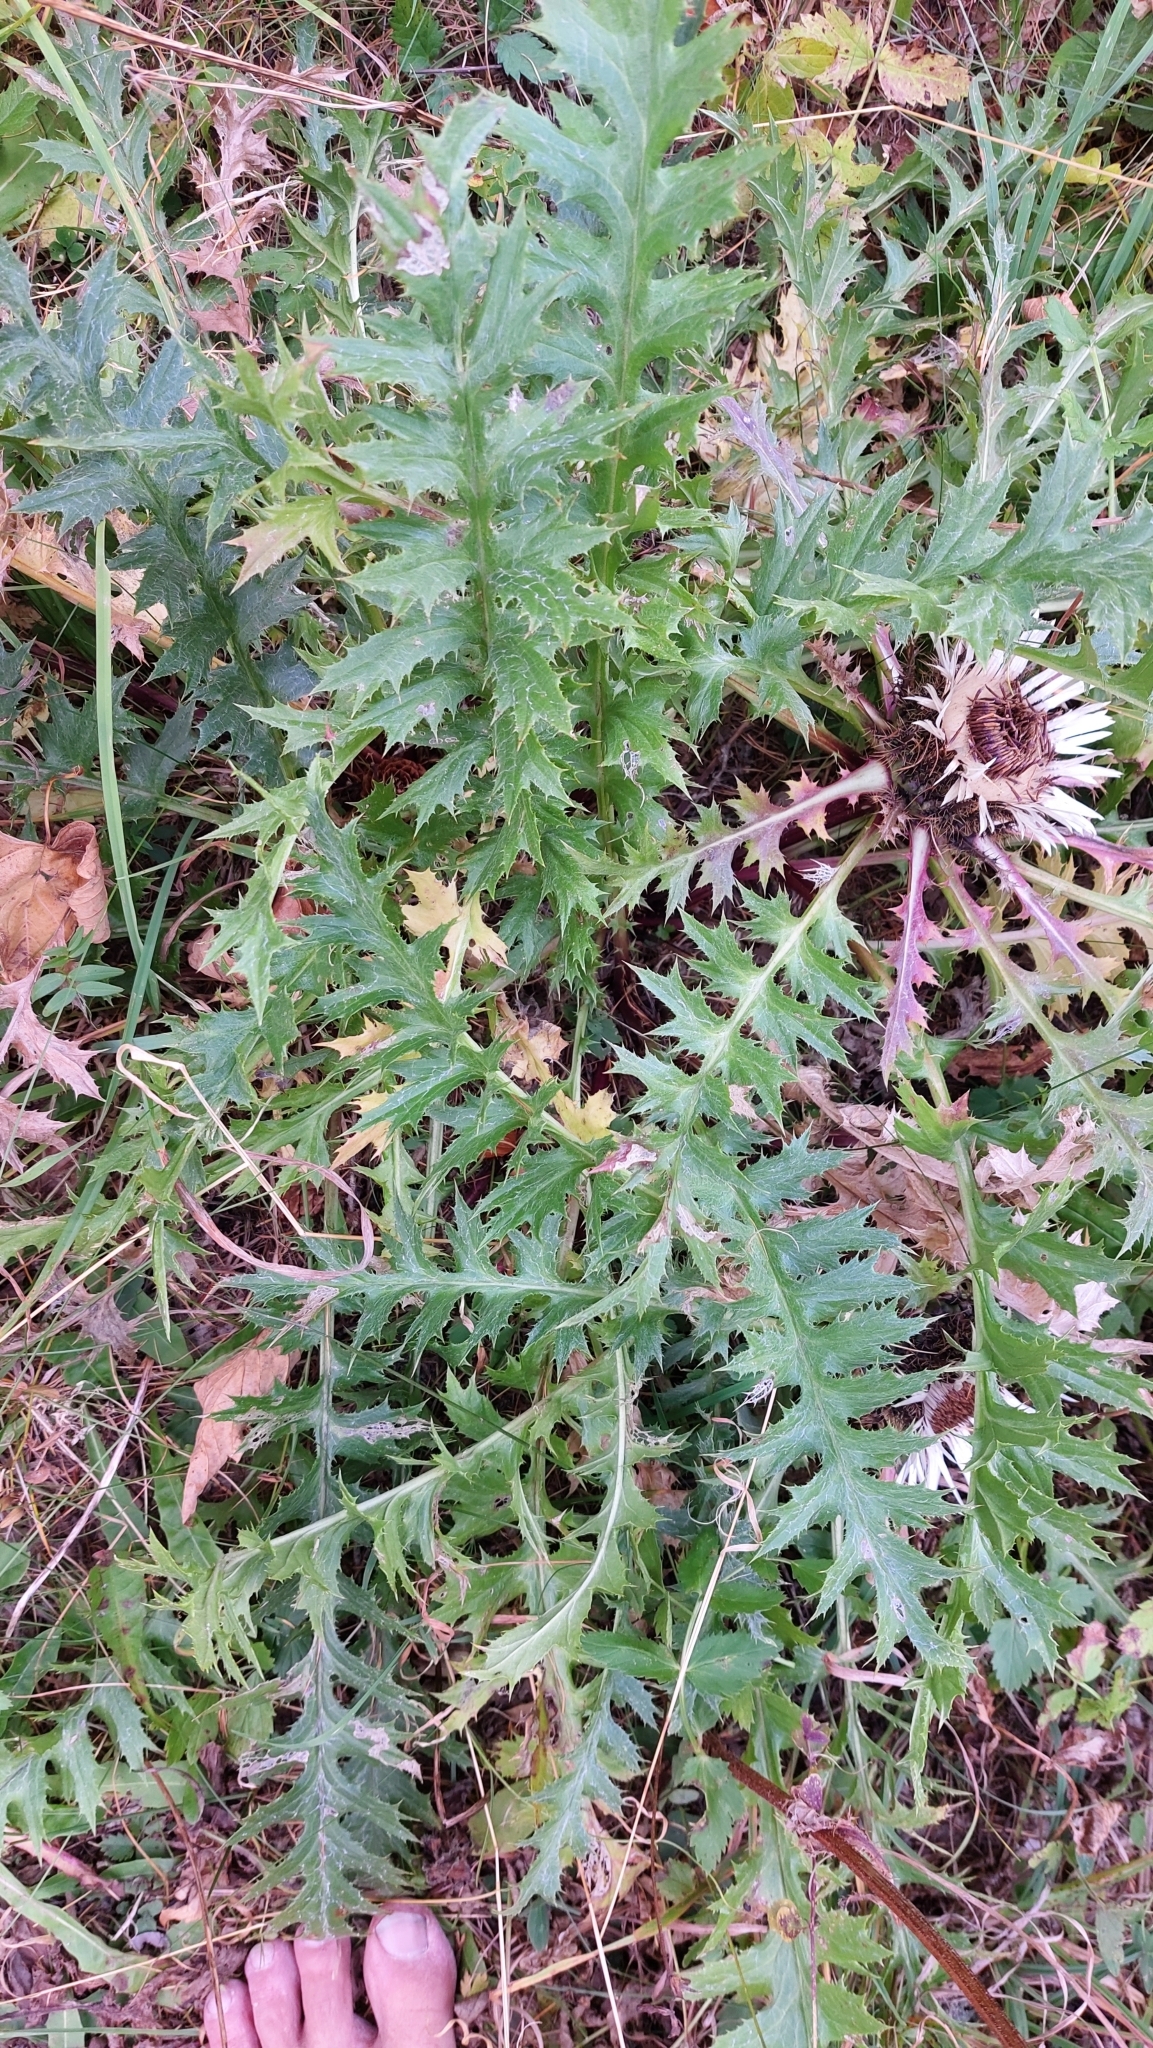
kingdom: Plantae
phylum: Tracheophyta
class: Magnoliopsida
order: Asterales
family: Asteraceae
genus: Carlina
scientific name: Carlina acaulis
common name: Stemless carline thistle
